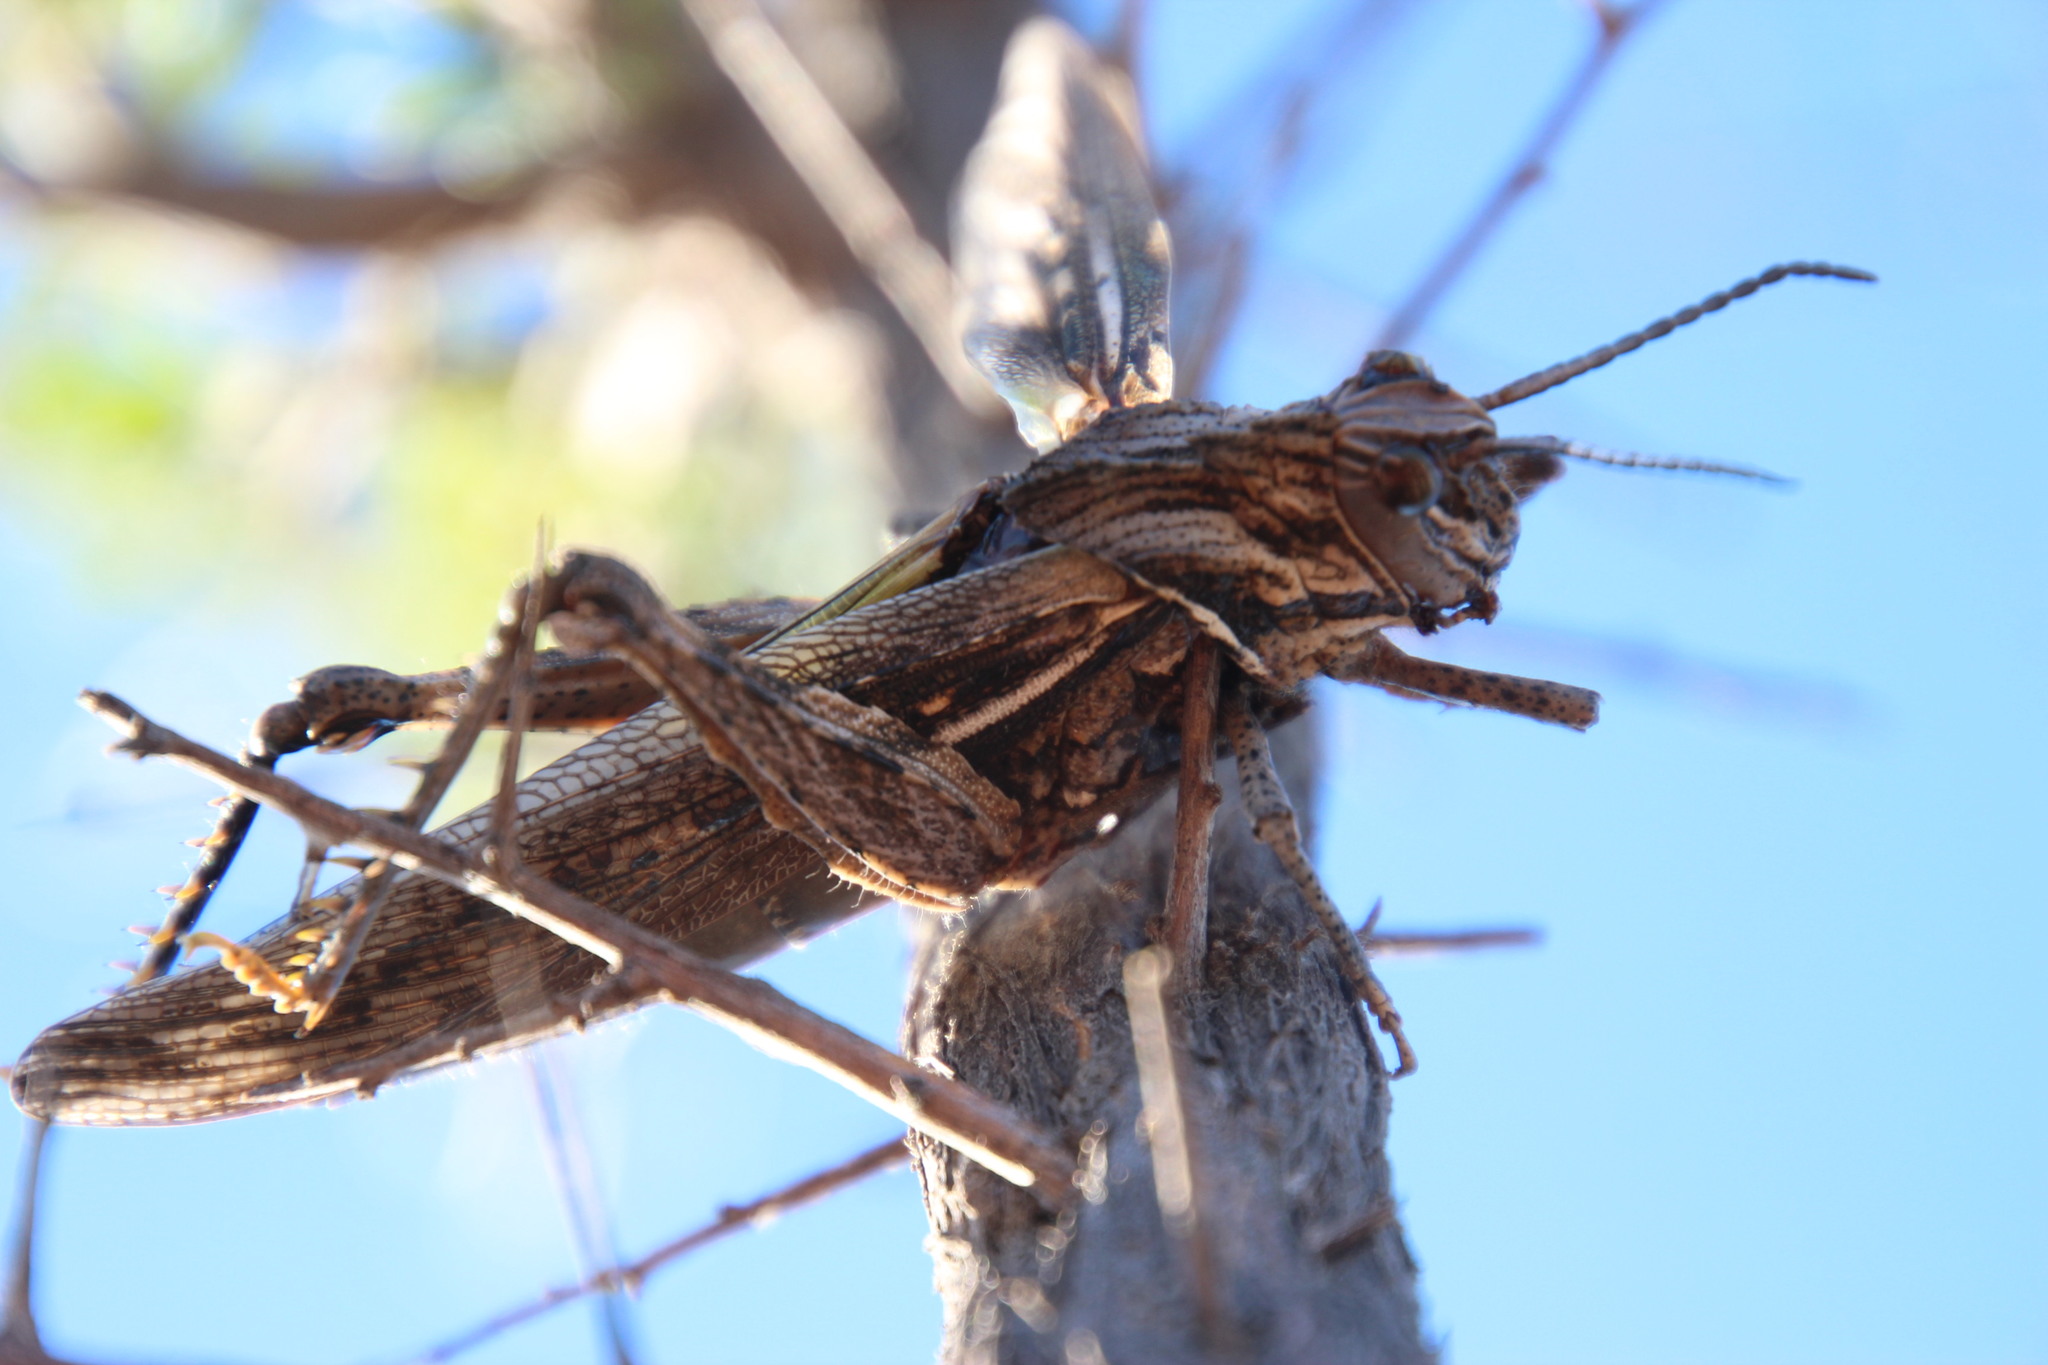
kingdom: Animalia
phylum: Arthropoda
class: Insecta
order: Orthoptera
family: Pamphagidae
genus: Adephagus
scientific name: Adephagus cristatus
